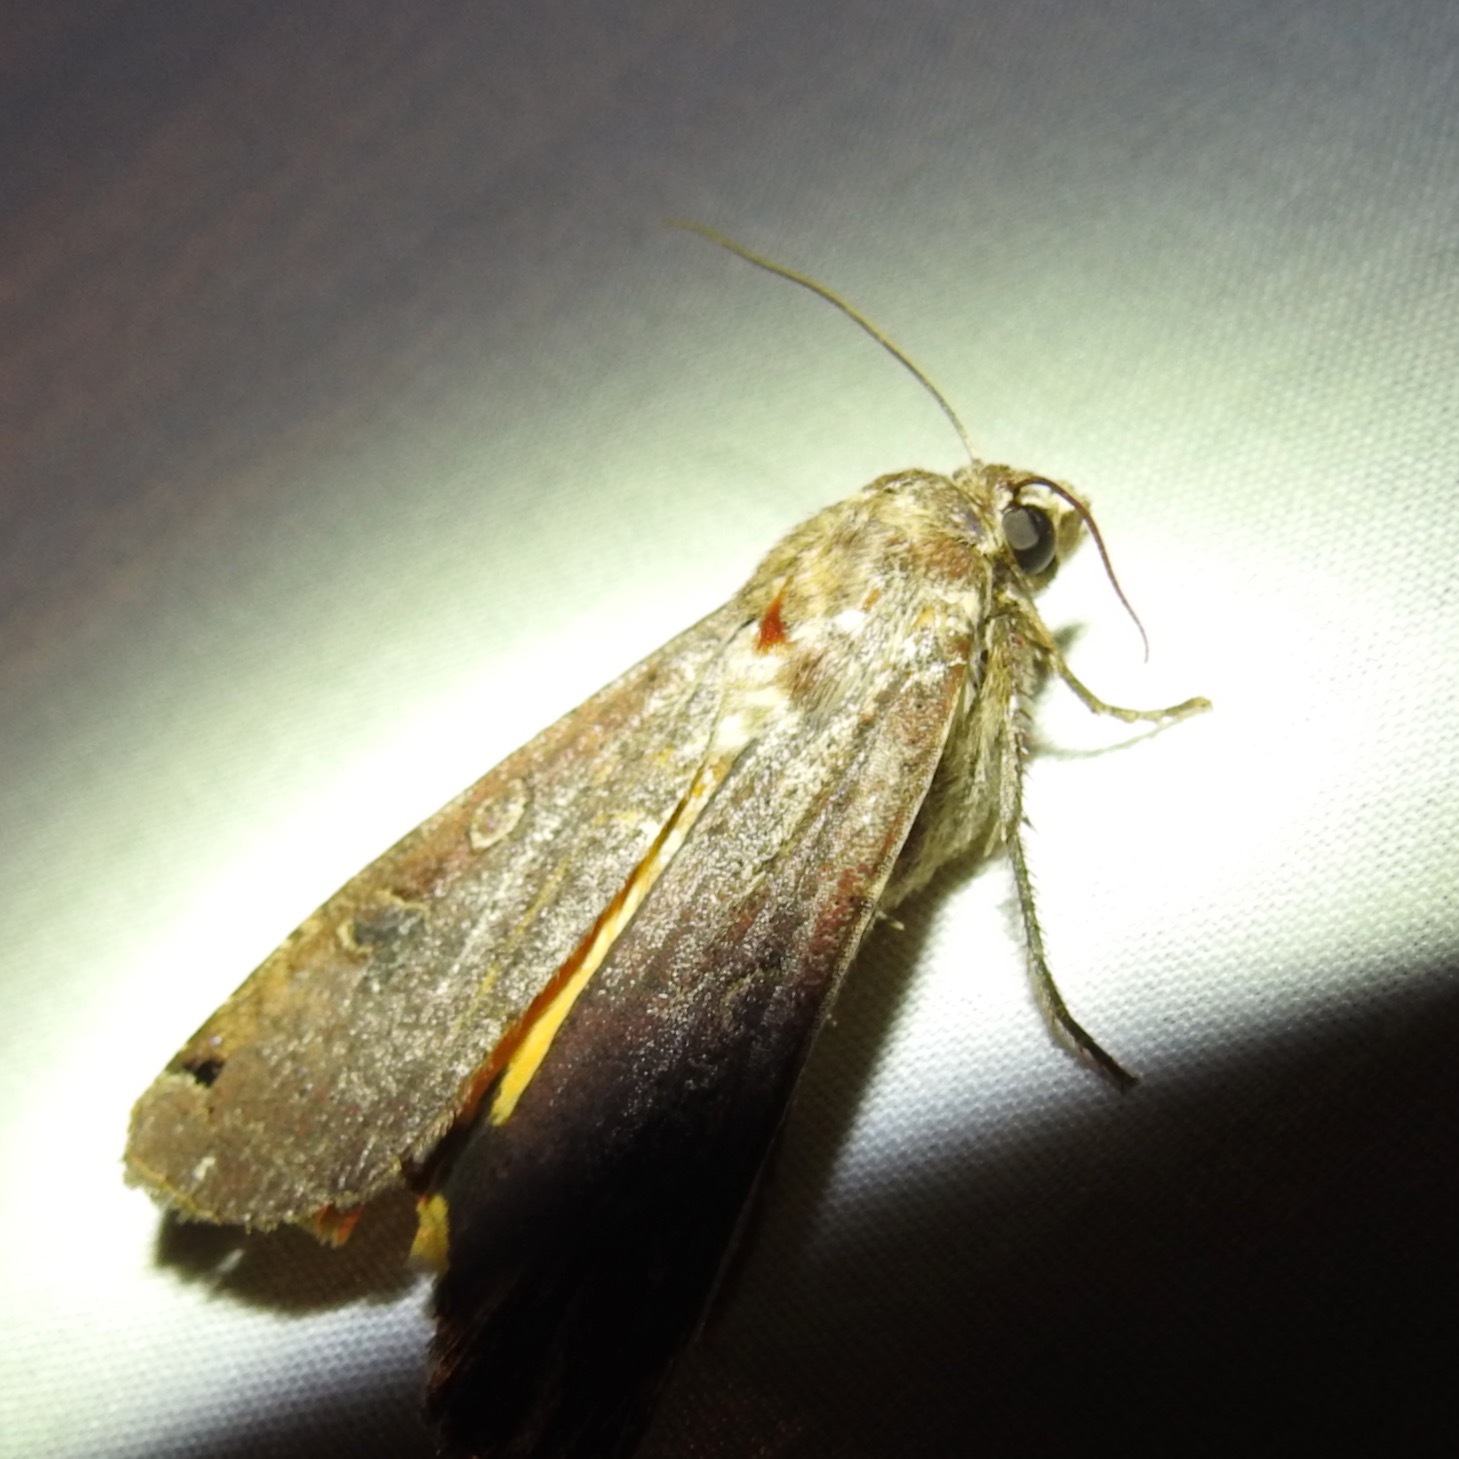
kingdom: Animalia
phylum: Arthropoda
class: Insecta
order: Lepidoptera
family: Noctuidae
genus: Noctua
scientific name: Noctua pronuba
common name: Large yellow underwing
